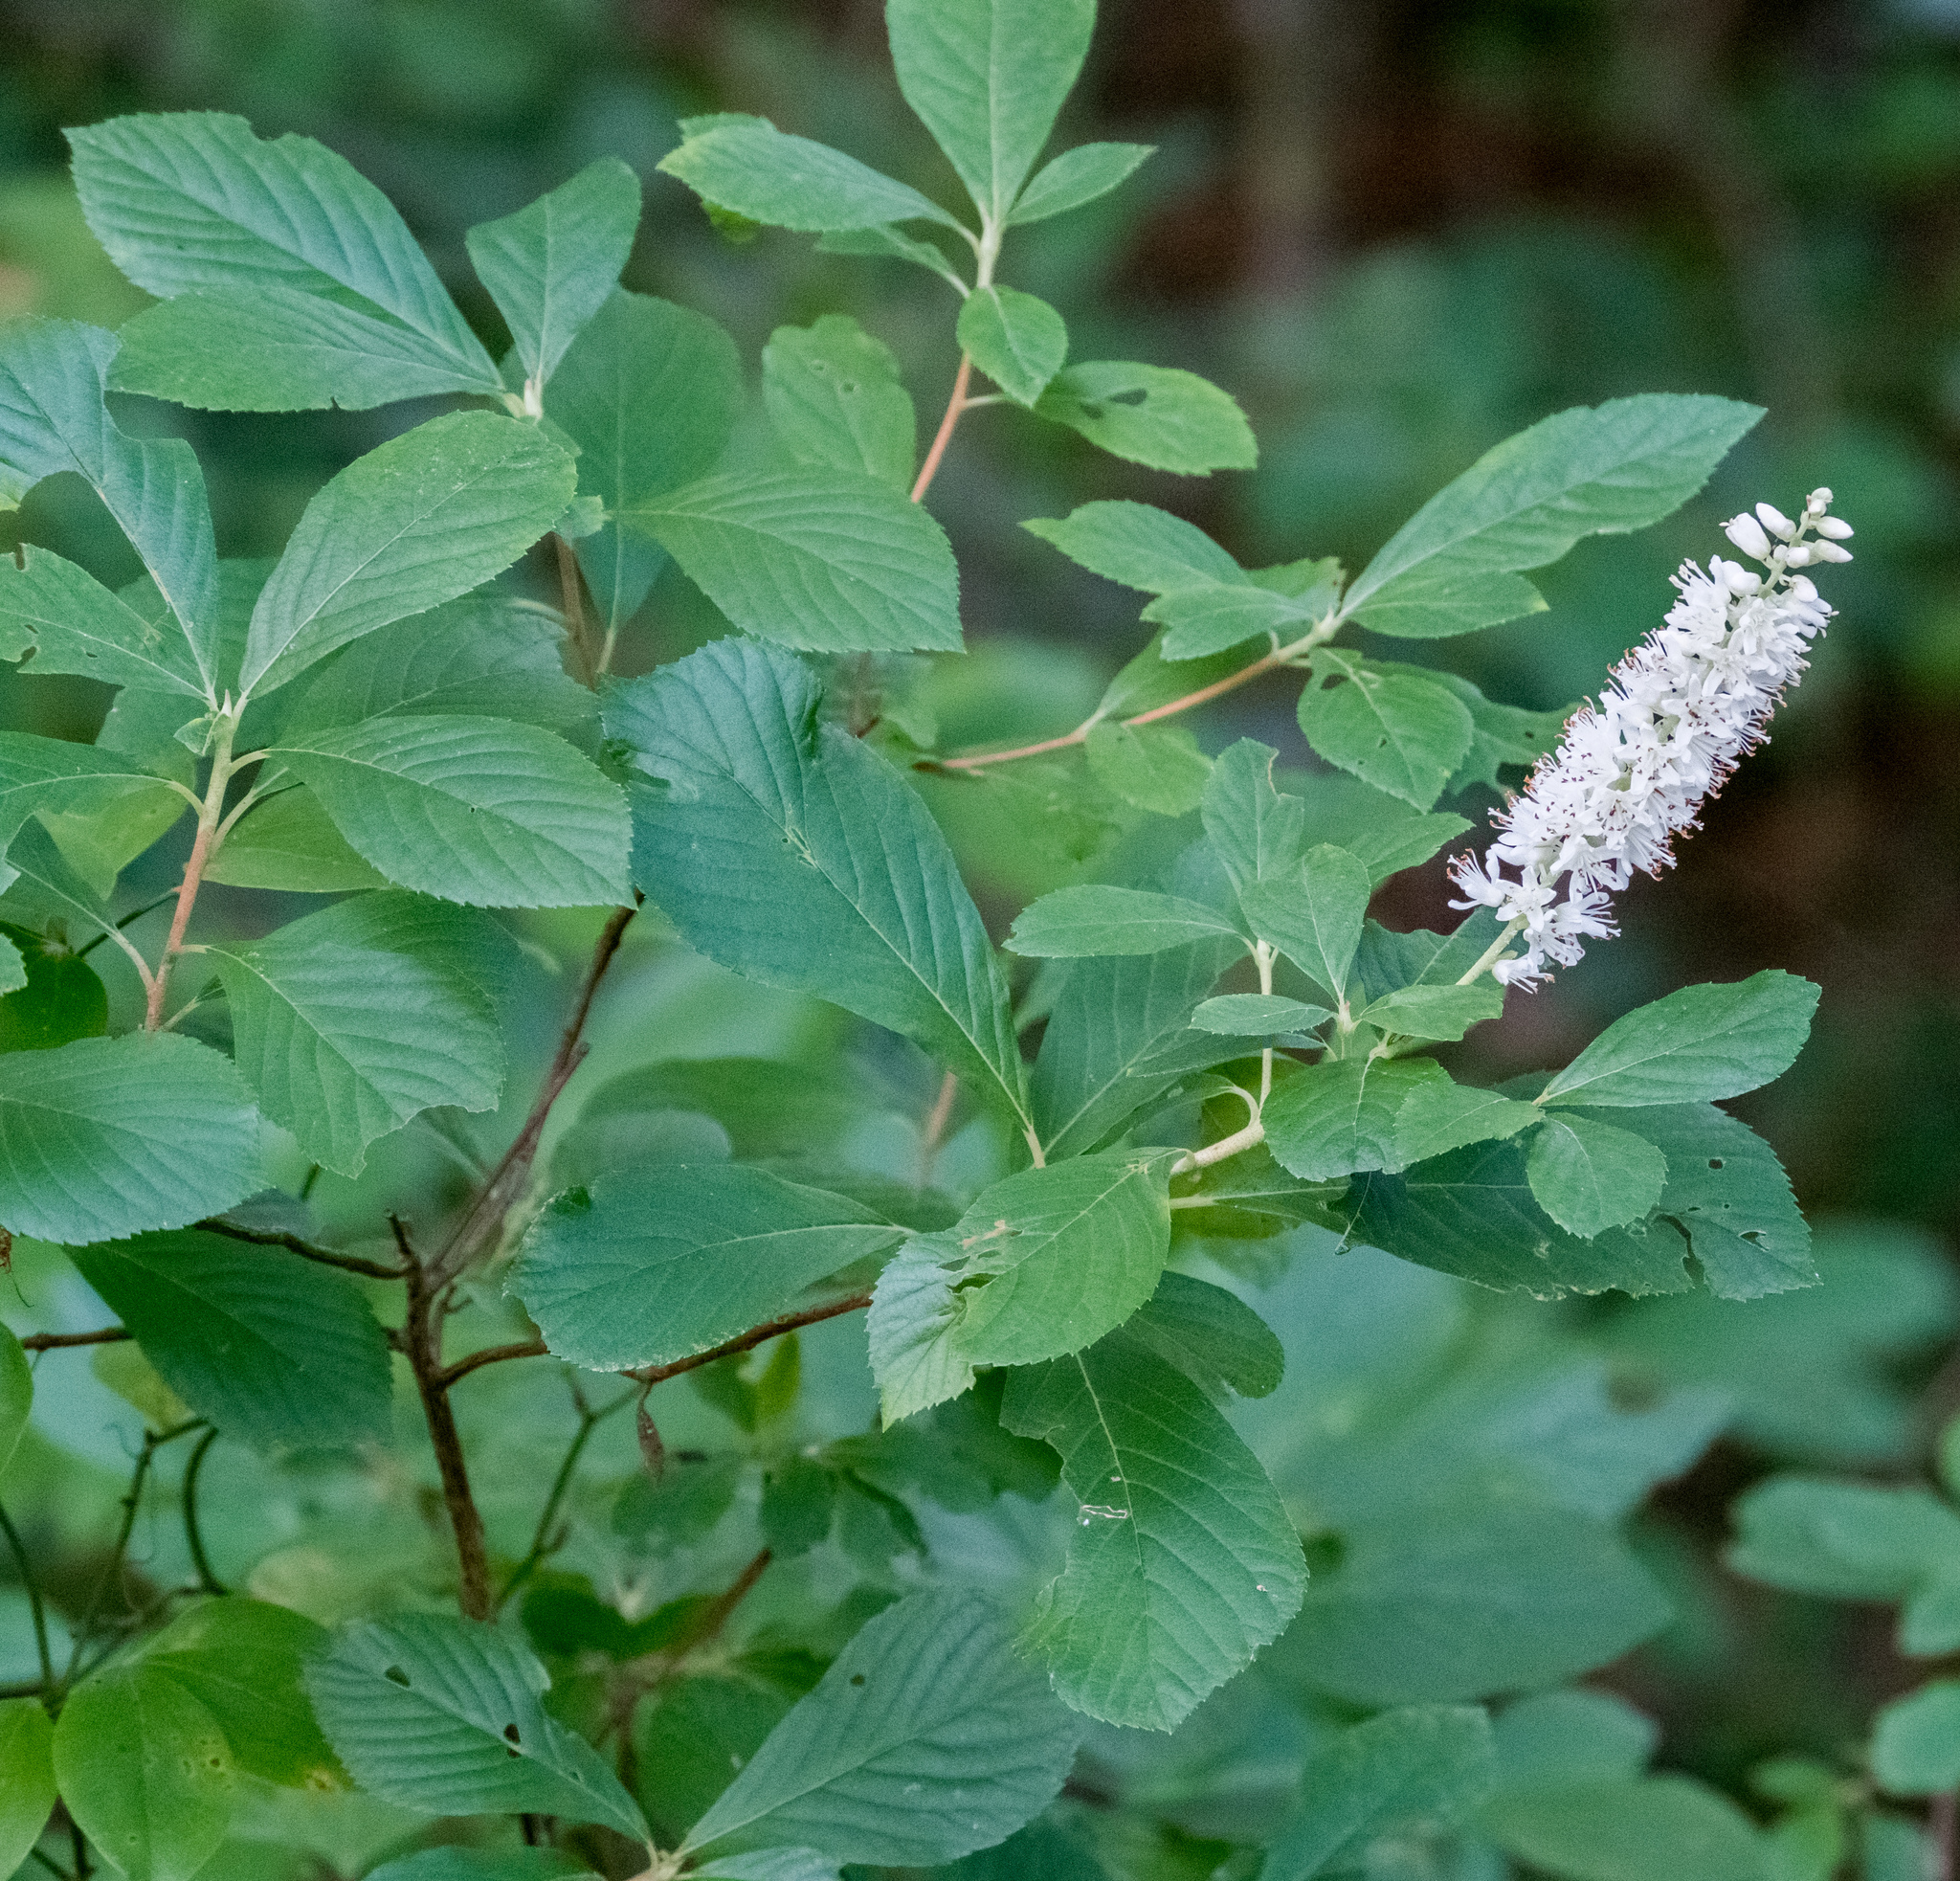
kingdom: Plantae
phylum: Tracheophyta
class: Magnoliopsida
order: Ericales
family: Clethraceae
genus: Clethra
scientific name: Clethra alnifolia
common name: Sweet pepperbush
